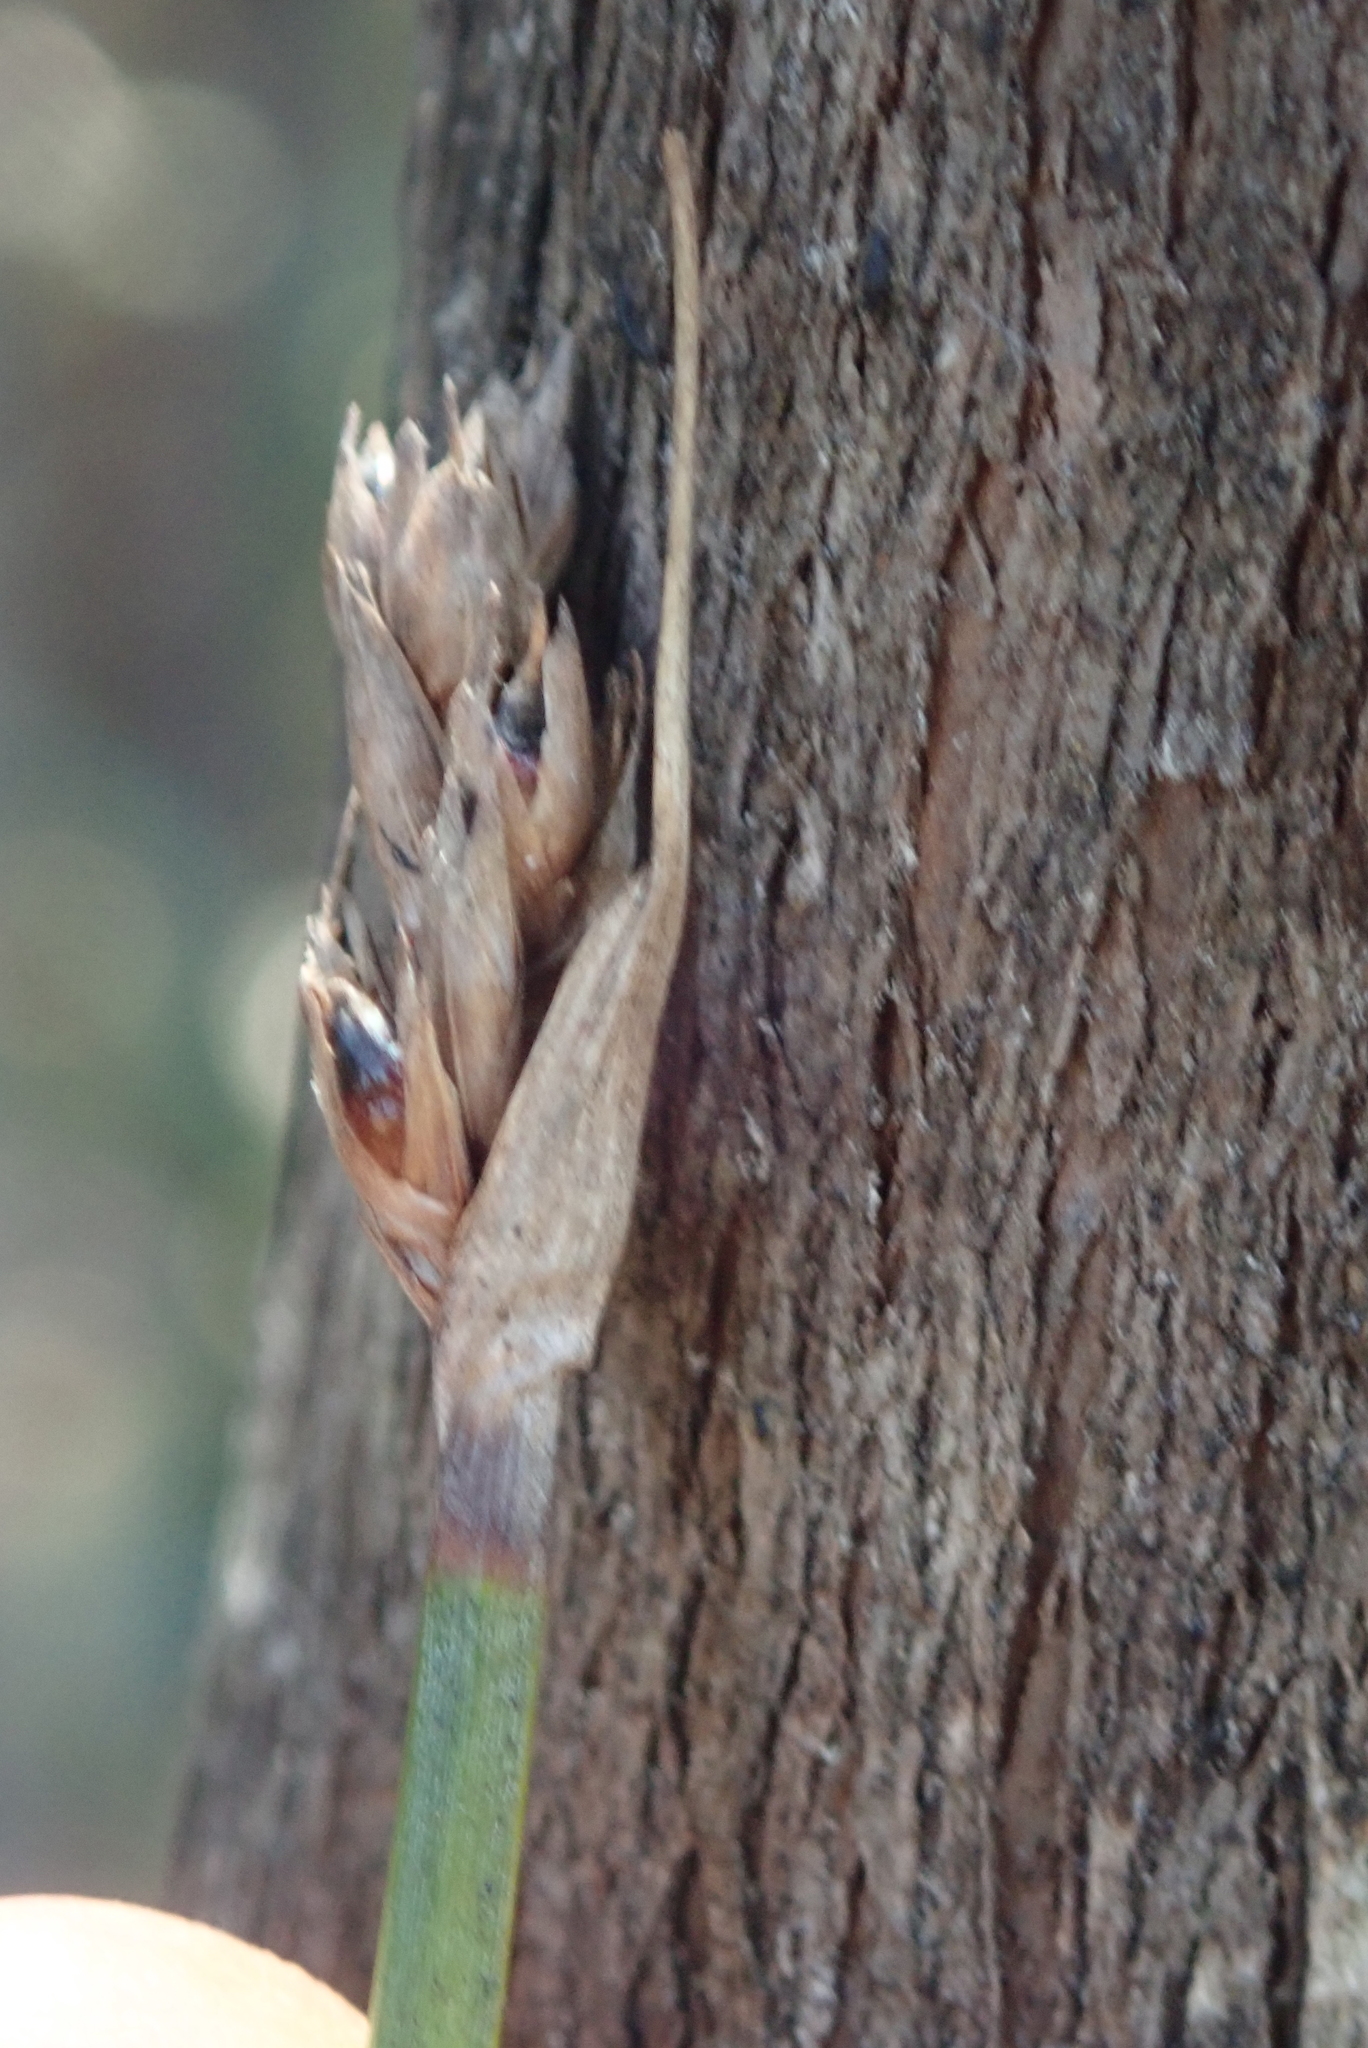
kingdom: Plantae
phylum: Tracheophyta
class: Liliopsida
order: Poales
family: Cyperaceae
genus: Lepidosperma
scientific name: Lepidosperma australe
